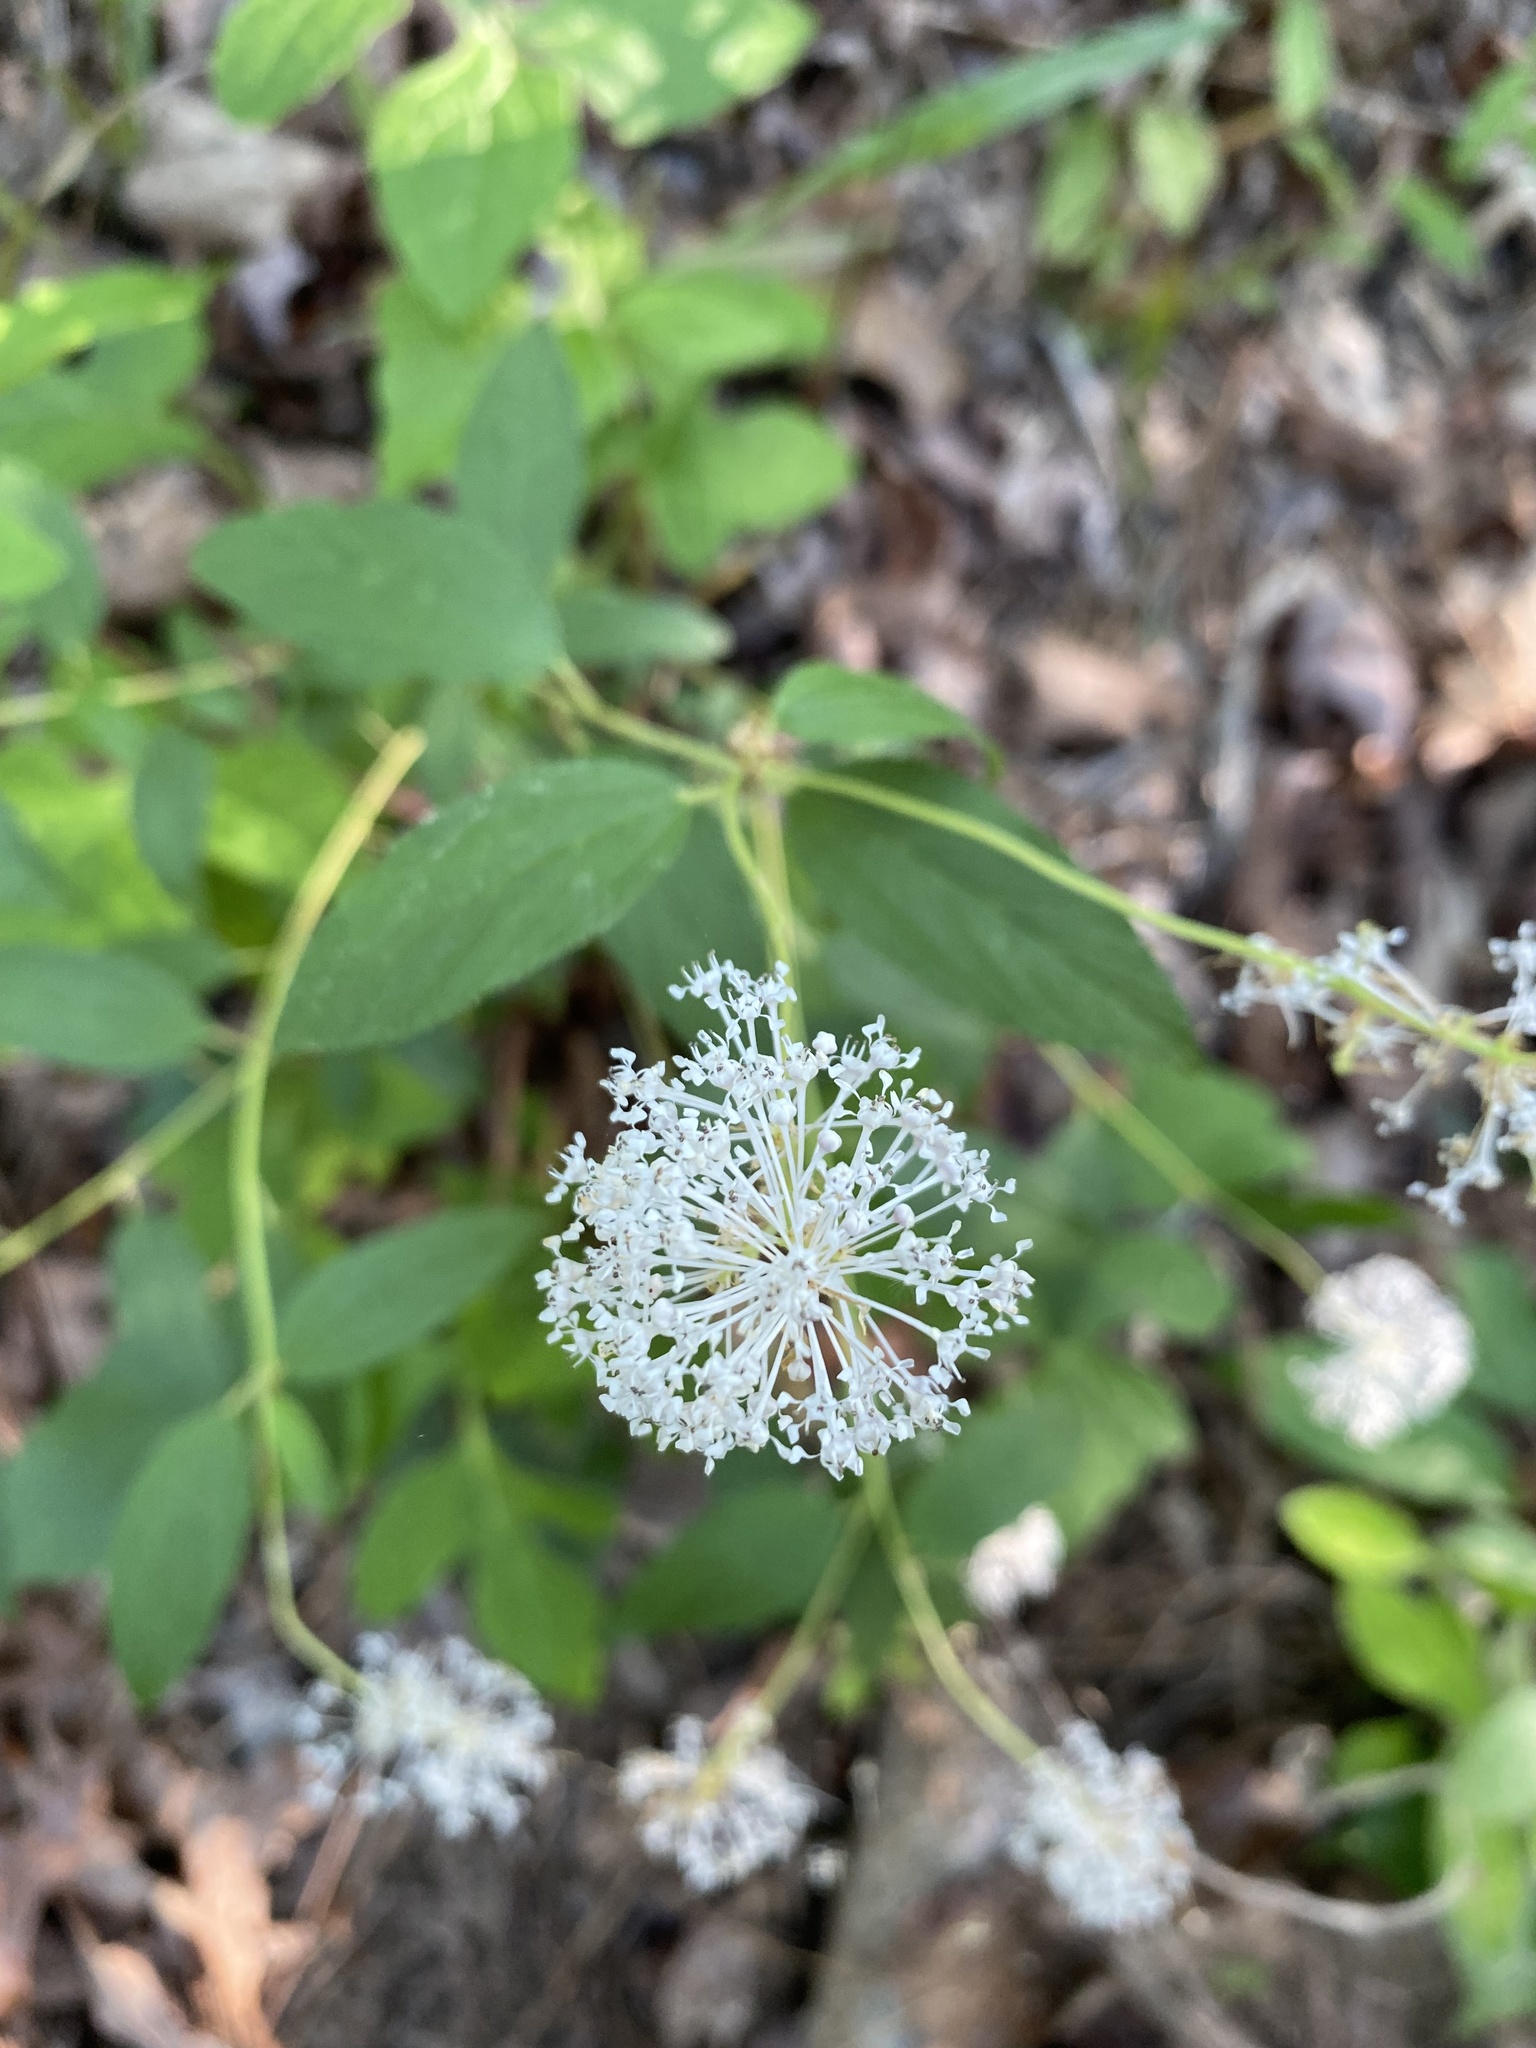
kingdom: Plantae
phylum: Tracheophyta
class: Magnoliopsida
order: Rosales
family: Rhamnaceae
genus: Ceanothus
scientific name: Ceanothus americanus
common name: Redroot
